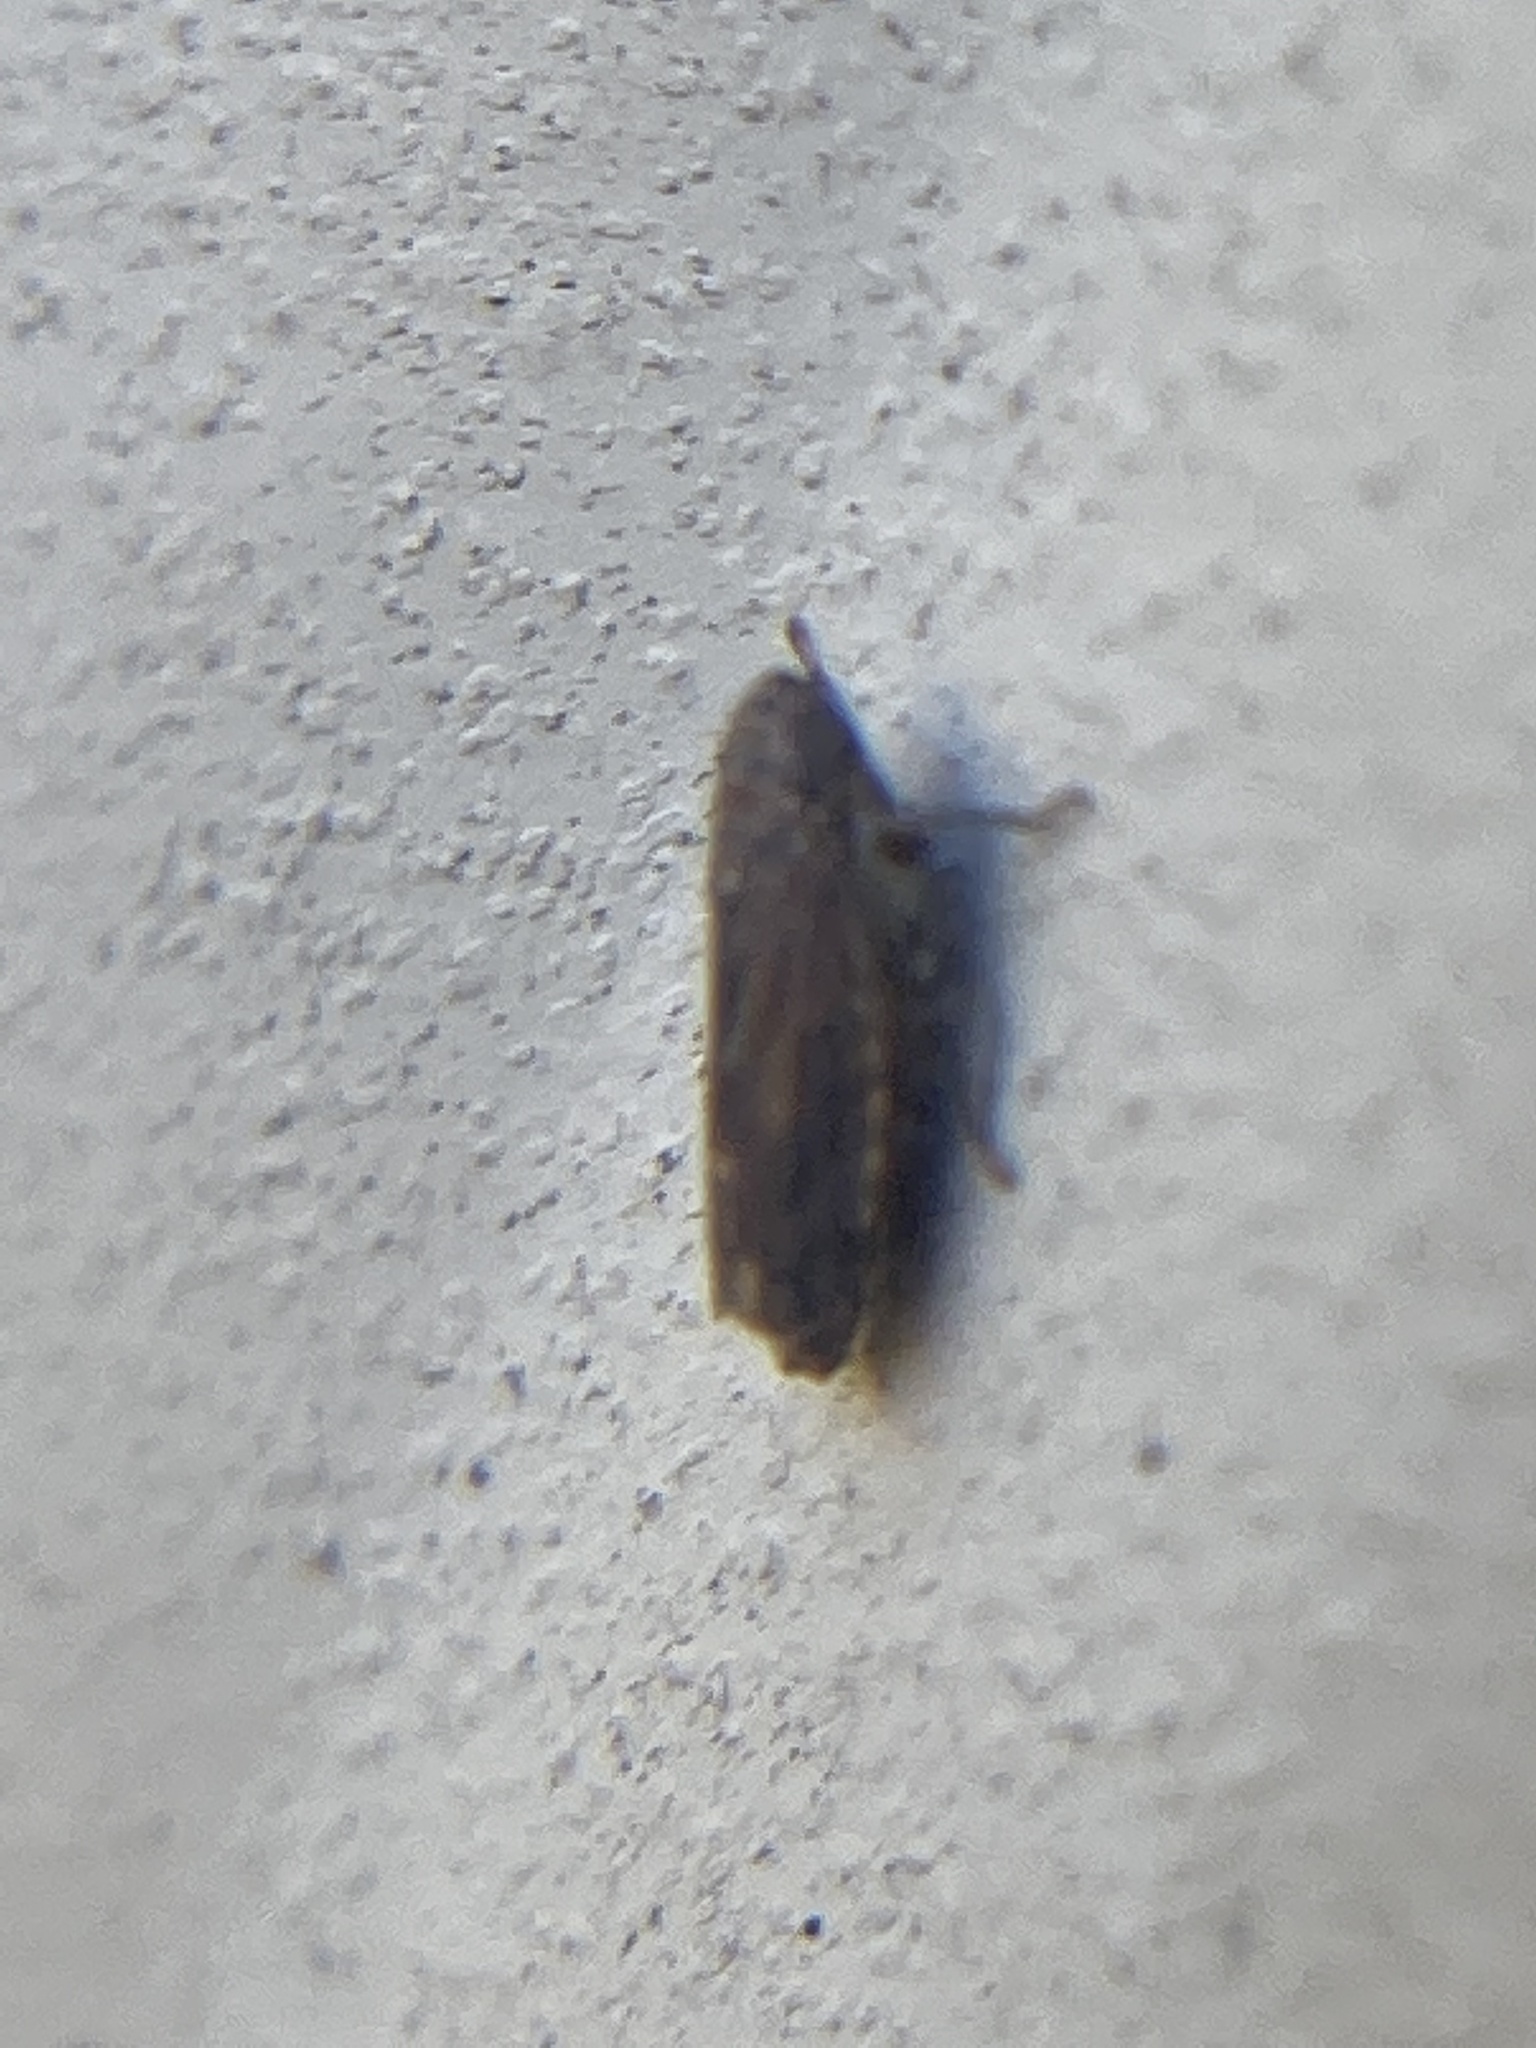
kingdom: Animalia
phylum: Arthropoda
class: Insecta
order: Hemiptera
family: Cicadellidae
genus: Stirellus
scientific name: Stirellus bicolor
